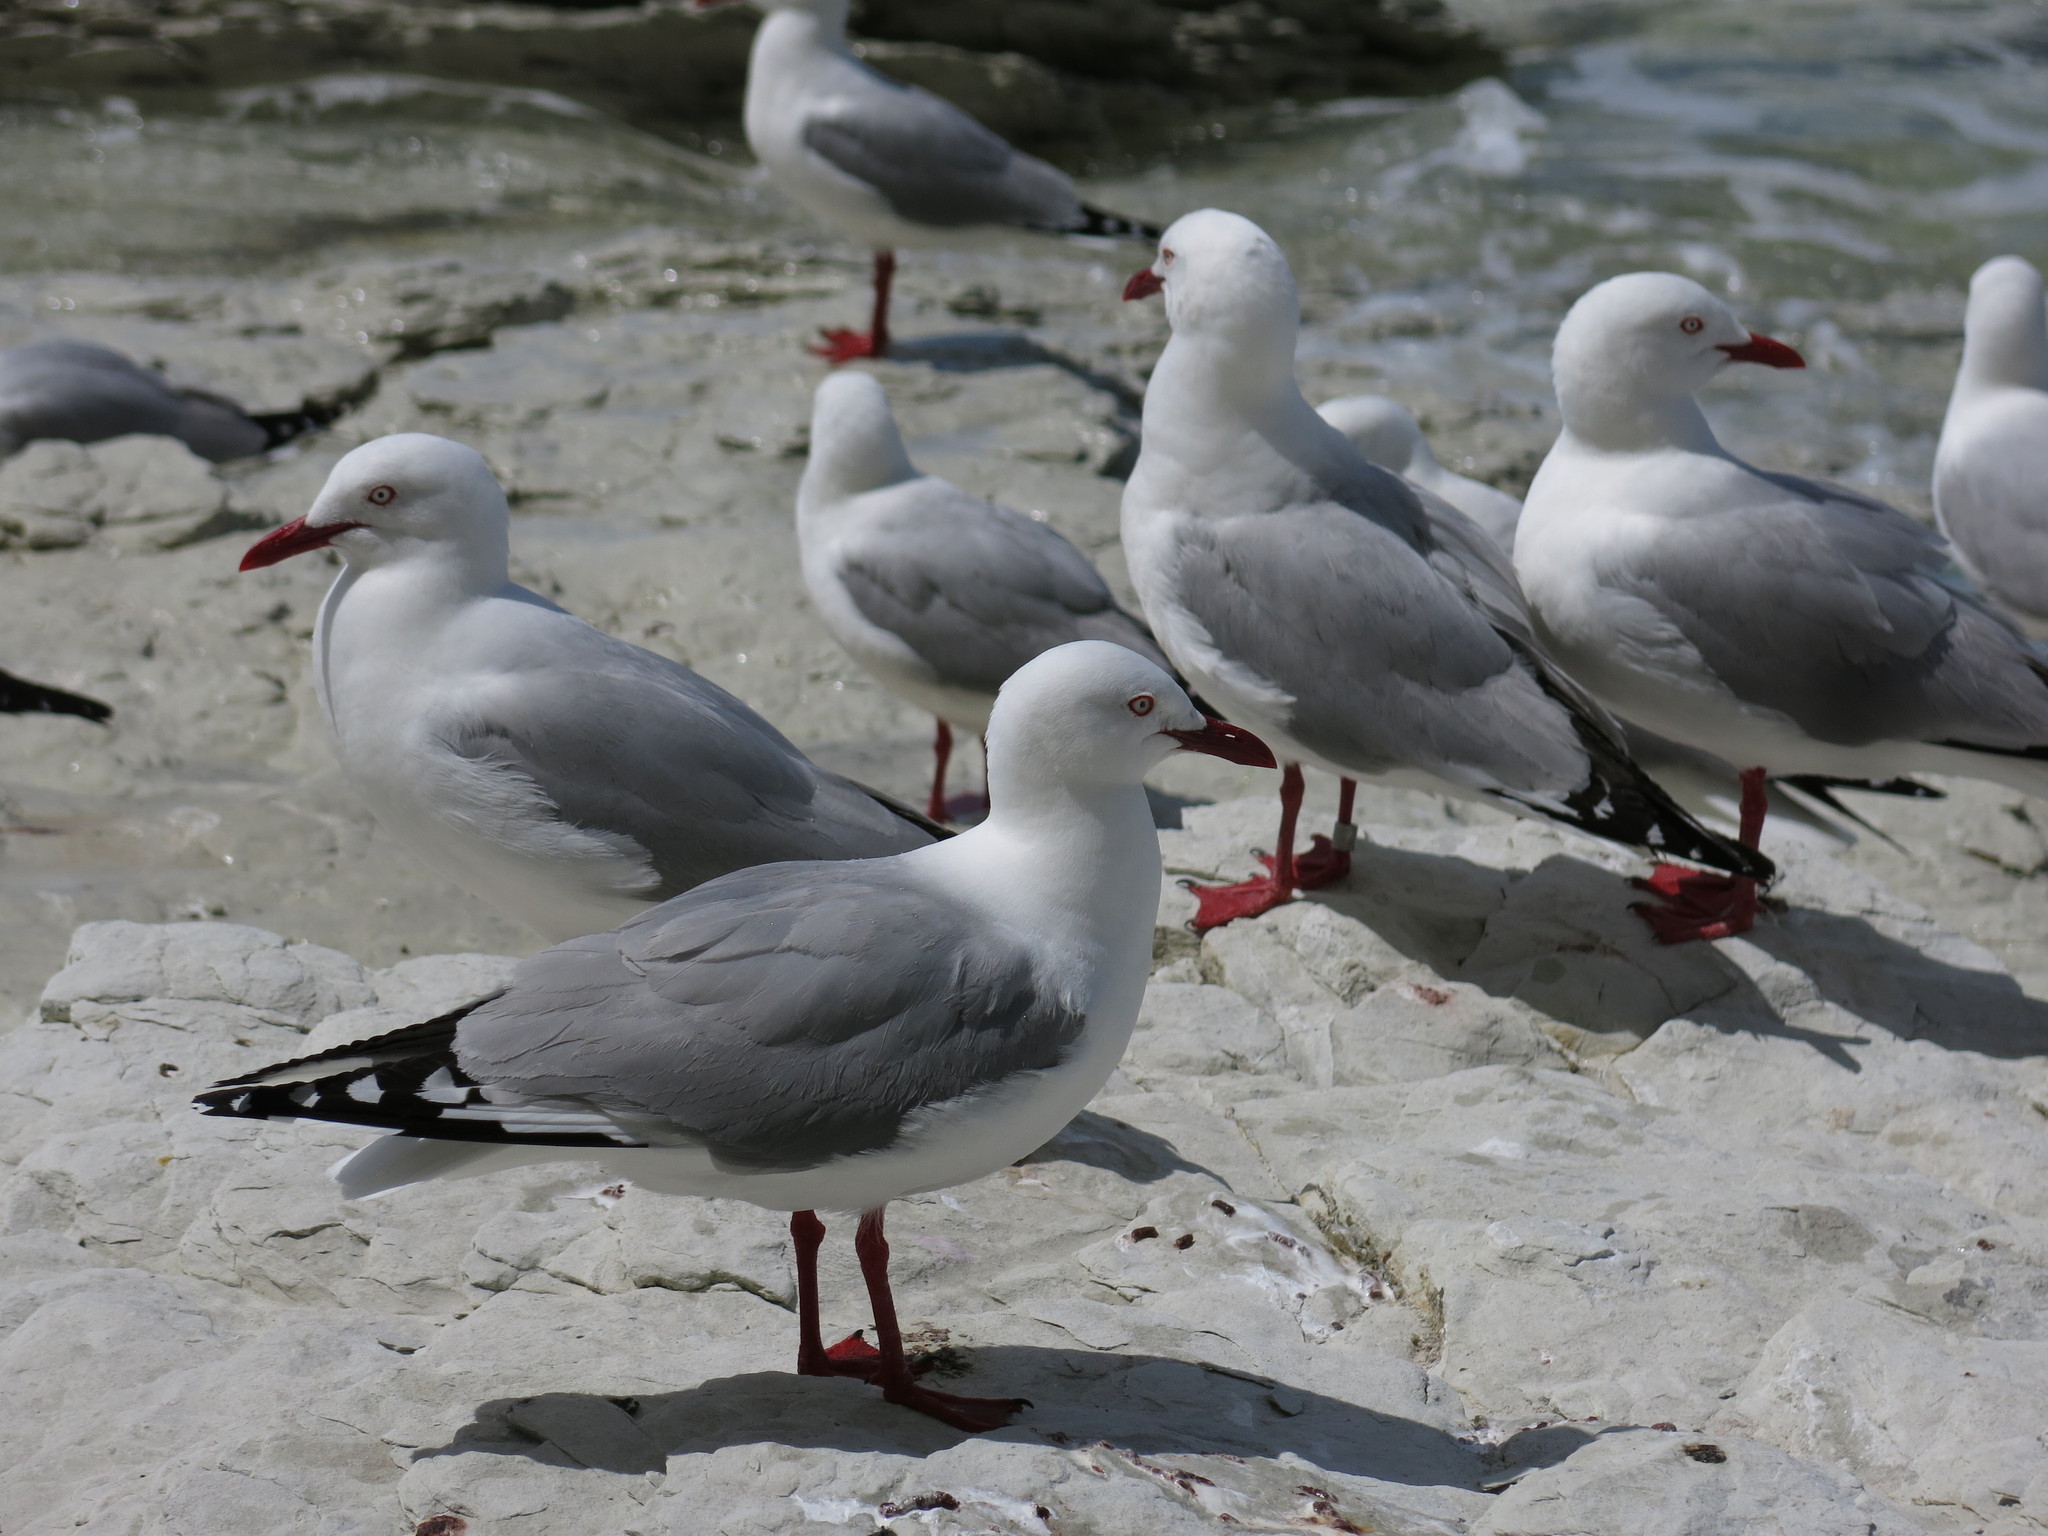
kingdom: Animalia
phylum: Chordata
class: Aves
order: Charadriiformes
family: Laridae
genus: Chroicocephalus
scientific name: Chroicocephalus novaehollandiae
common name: Silver gull
